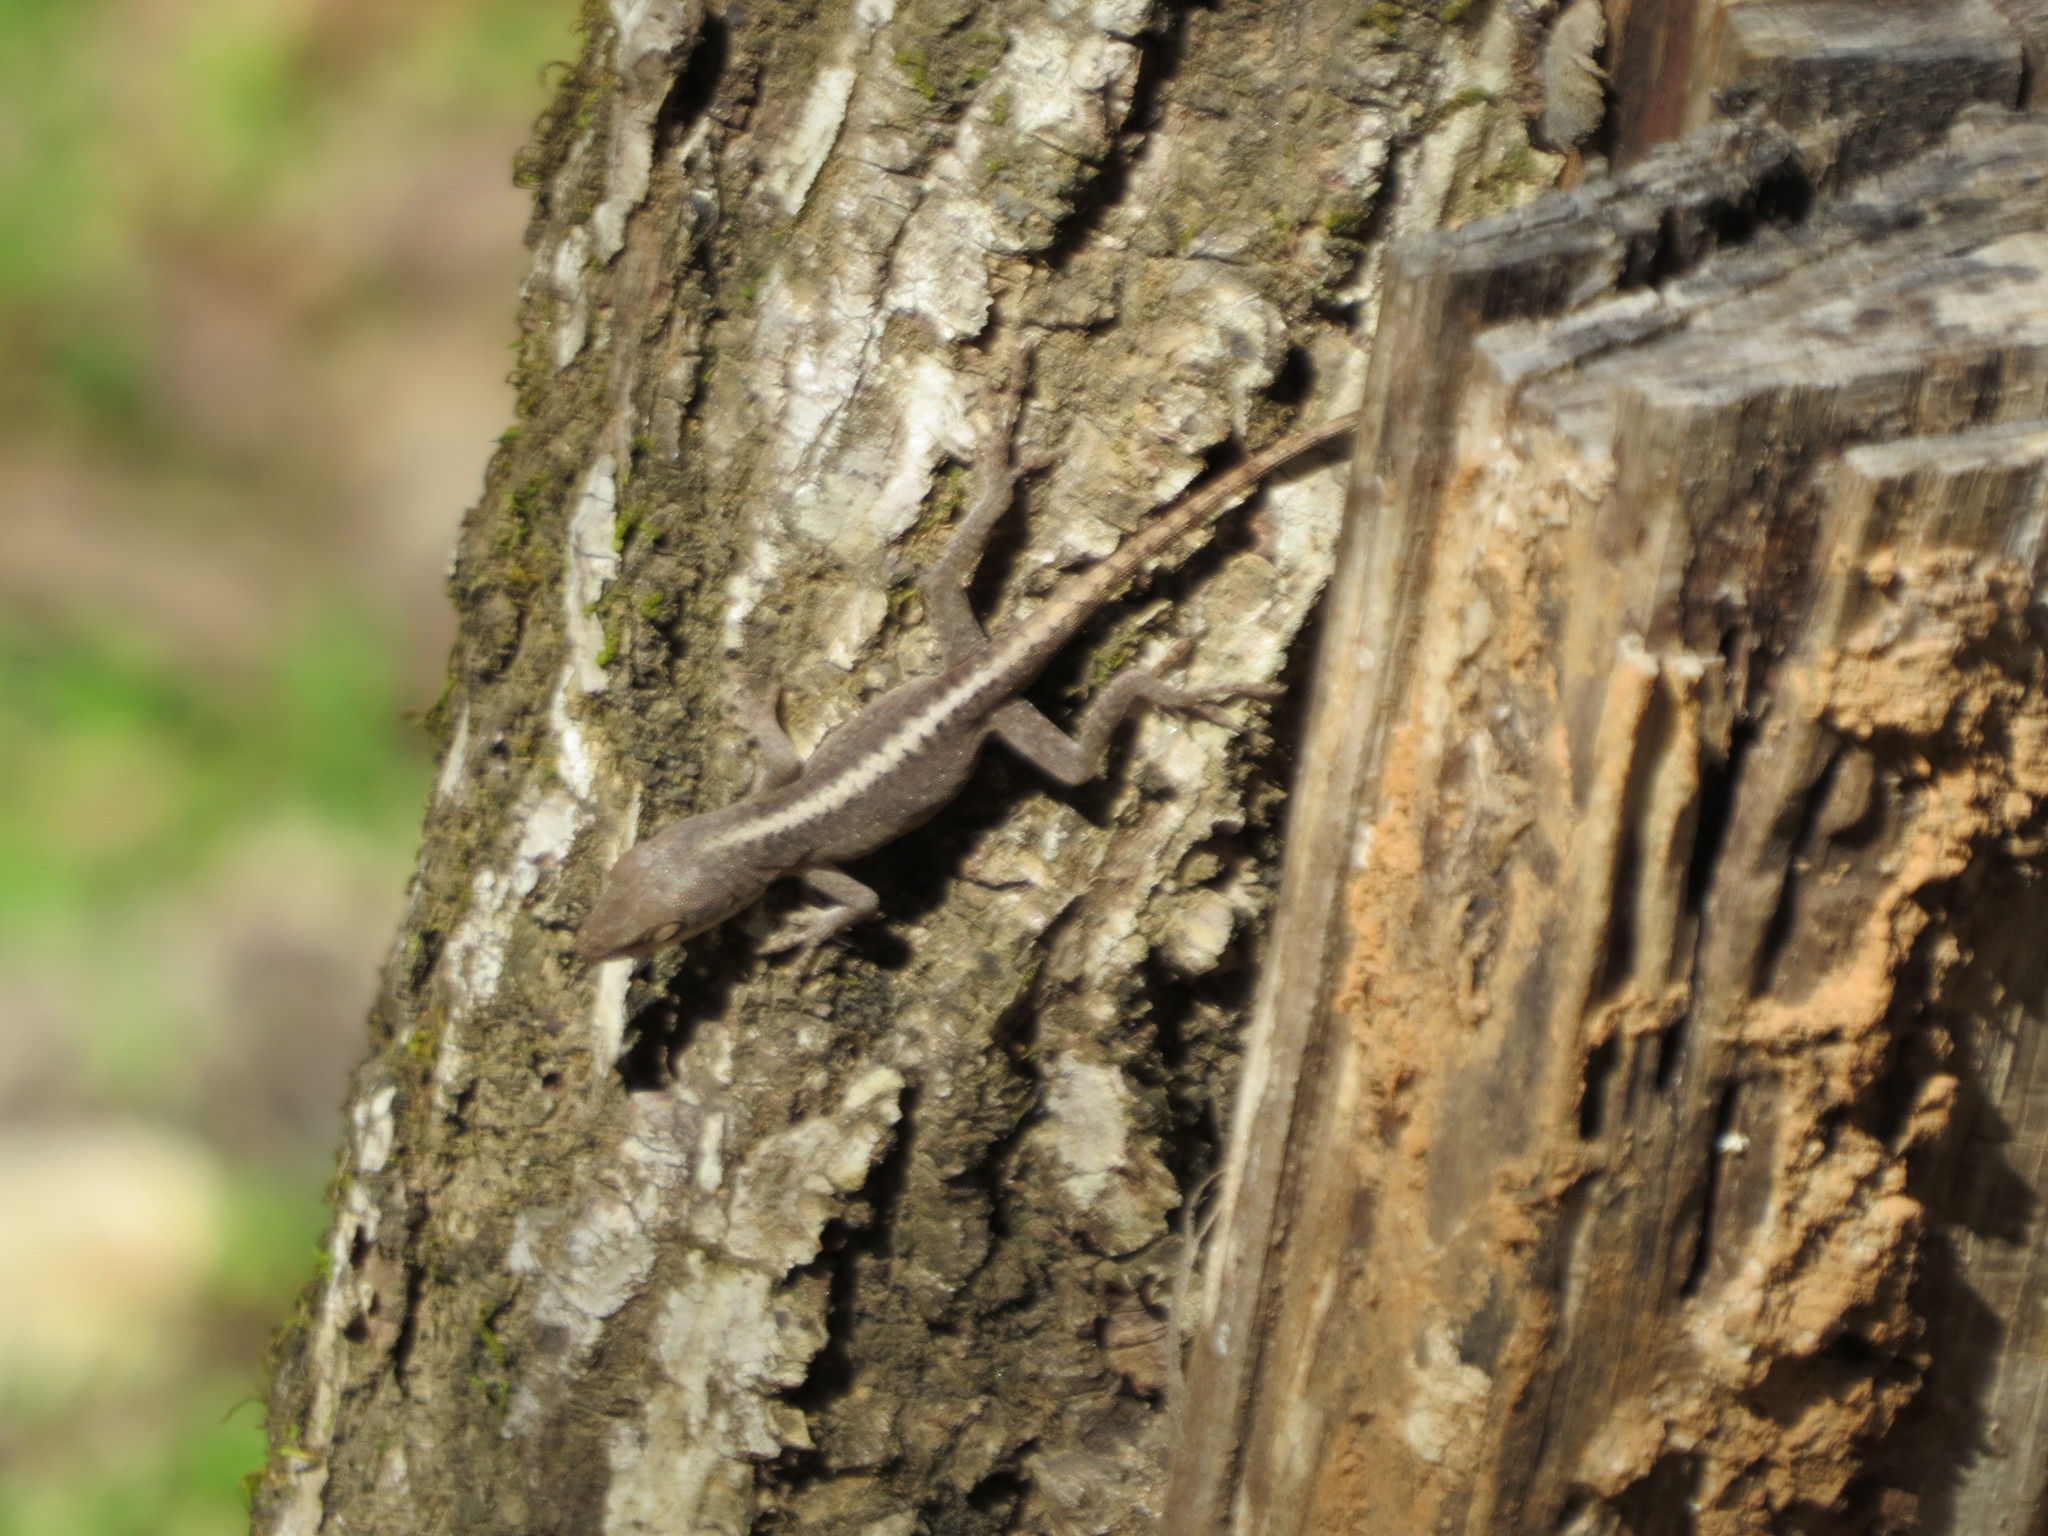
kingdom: Animalia
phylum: Chordata
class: Squamata
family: Dactyloidae
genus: Anolis
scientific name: Anolis carolinensis
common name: Green anole
